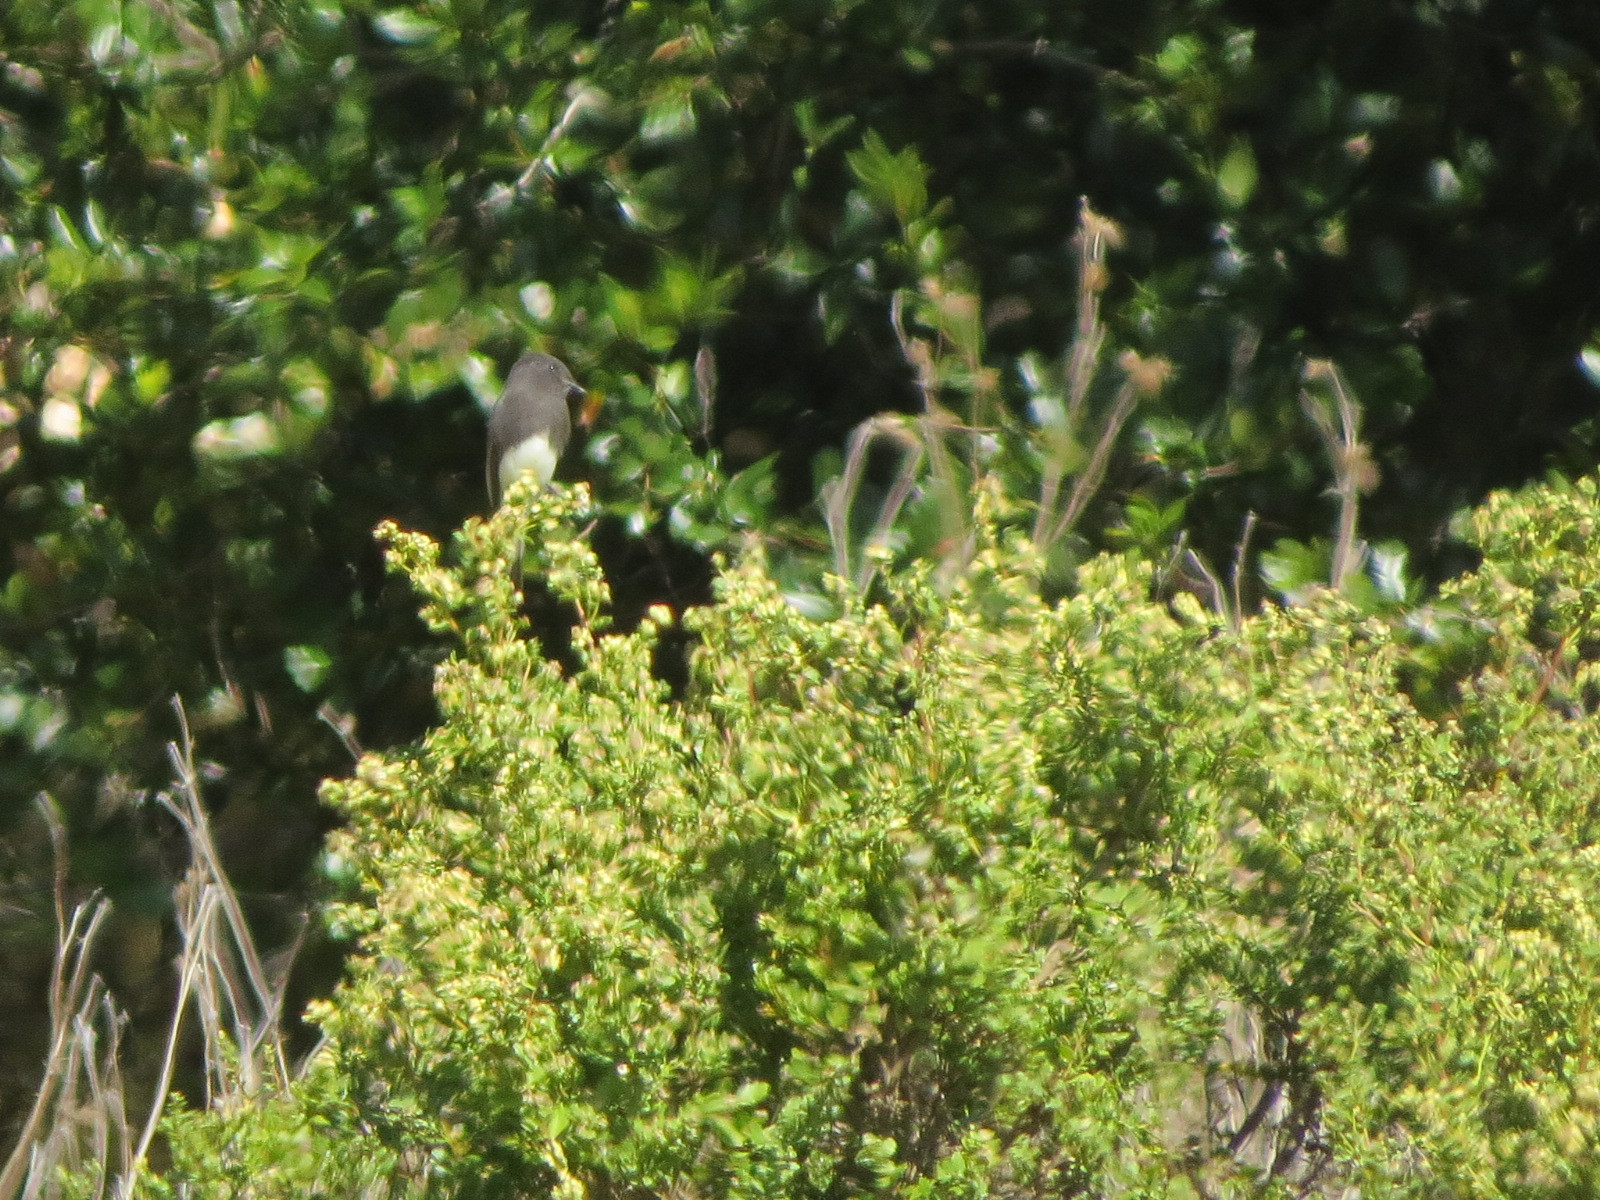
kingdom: Animalia
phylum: Chordata
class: Aves
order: Passeriformes
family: Tyrannidae
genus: Sayornis
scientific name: Sayornis nigricans
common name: Black phoebe
